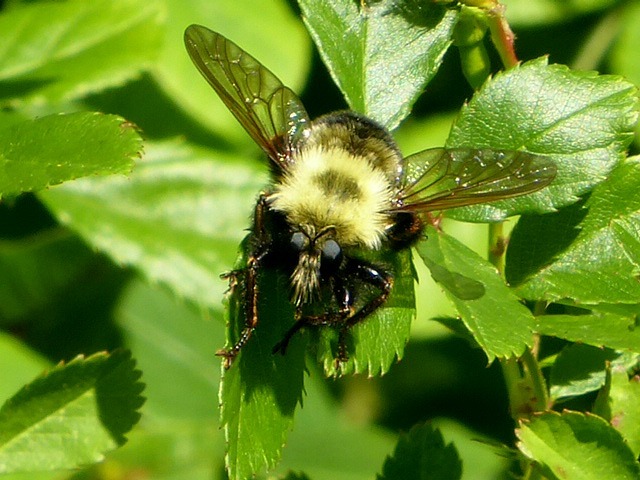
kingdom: Animalia
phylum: Arthropoda
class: Insecta
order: Diptera
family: Asilidae
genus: Laphria
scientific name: Laphria thoracica
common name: Bumble bee mimic robber fly
